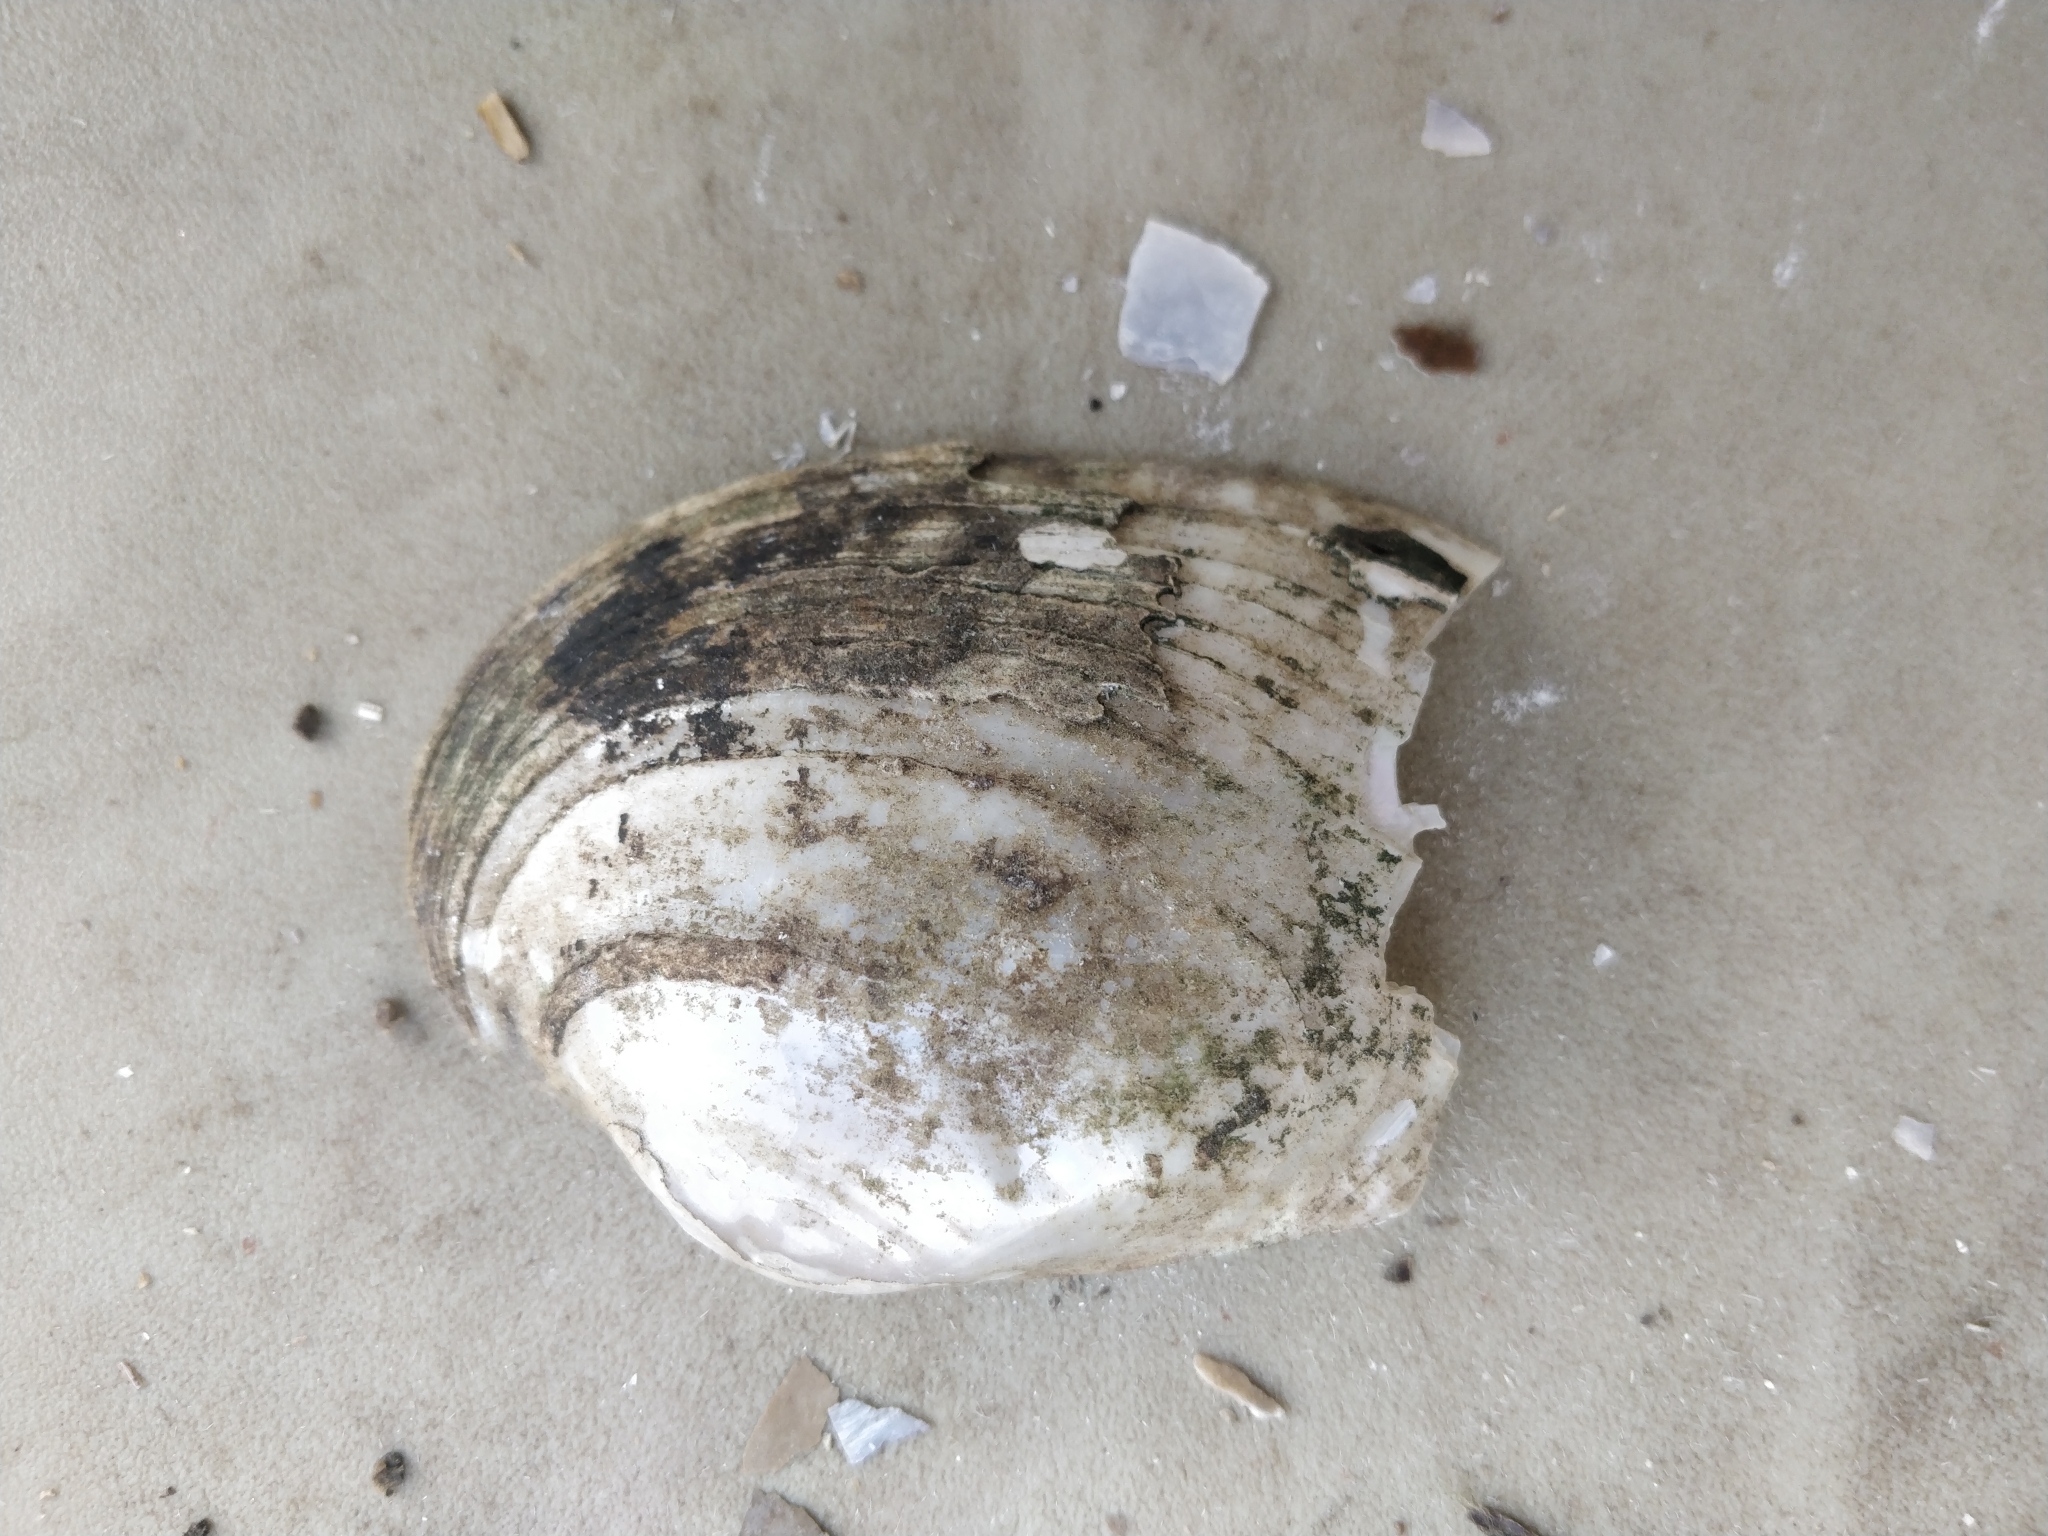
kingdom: Animalia
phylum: Mollusca
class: Bivalvia
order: Unionida
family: Unionidae
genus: Lampsilis
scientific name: Lampsilis cardium
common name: Plain pocketbook
